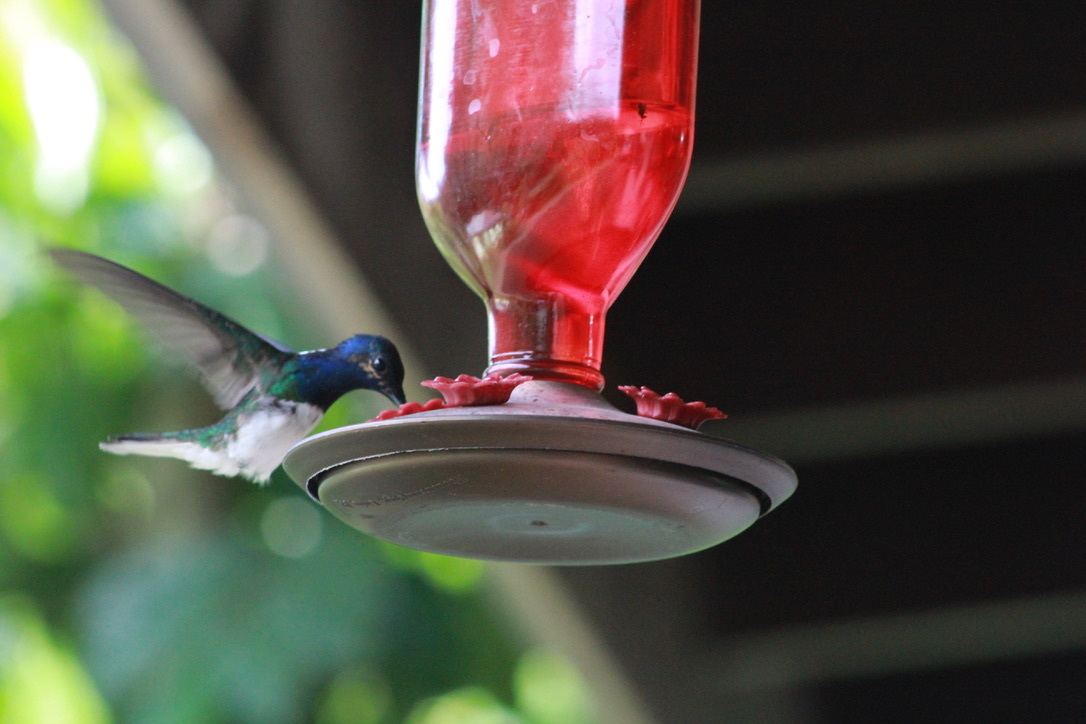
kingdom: Animalia
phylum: Chordata
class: Aves
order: Apodiformes
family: Trochilidae
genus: Florisuga
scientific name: Florisuga mellivora
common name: White-necked jacobin
